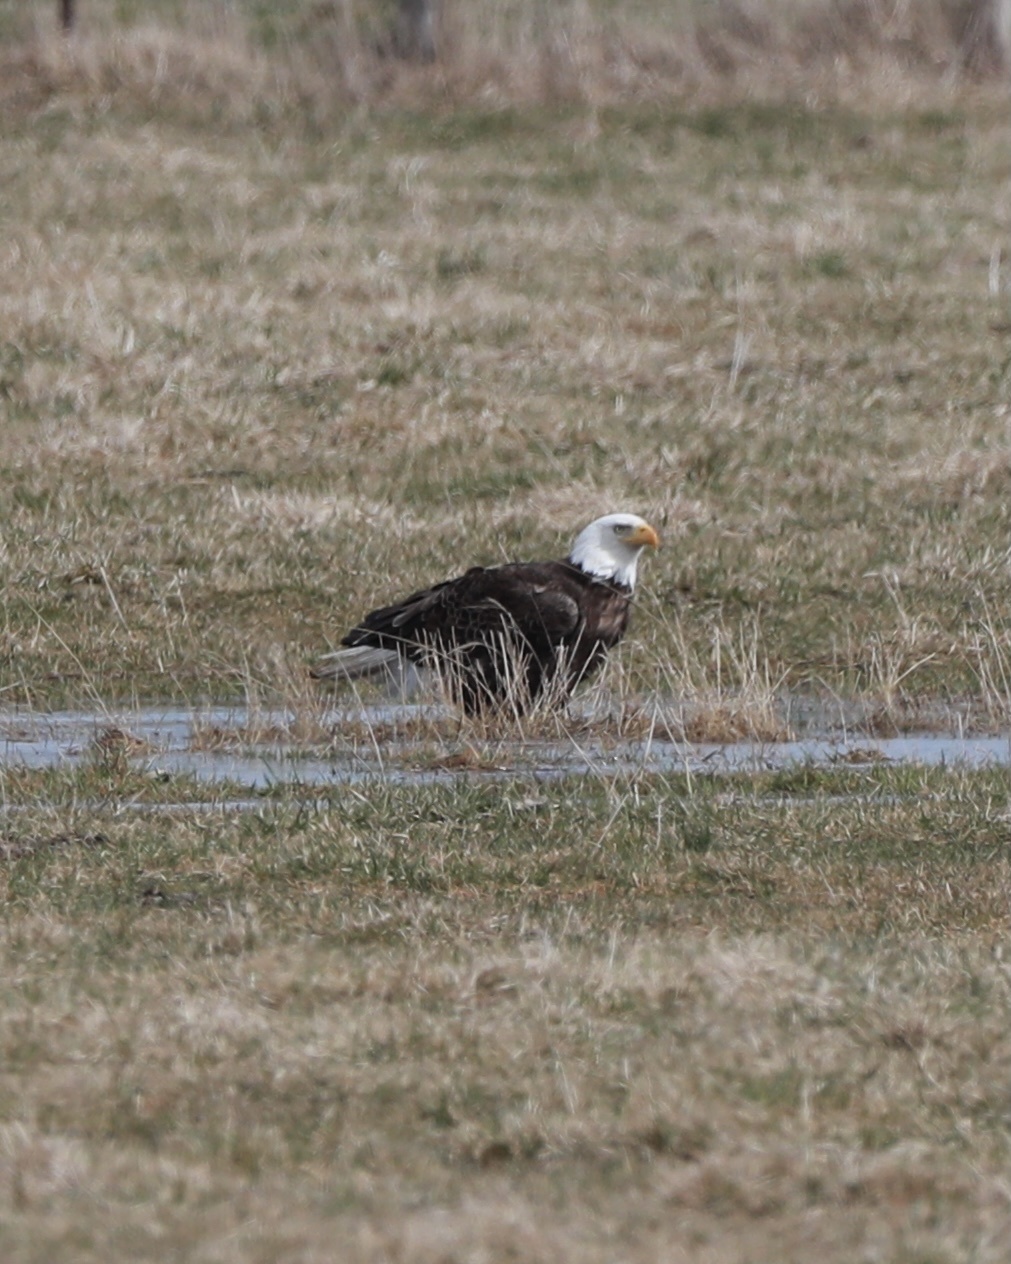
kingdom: Animalia
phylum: Chordata
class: Aves
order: Accipitriformes
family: Accipitridae
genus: Haliaeetus
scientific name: Haliaeetus leucocephalus
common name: Bald eagle
